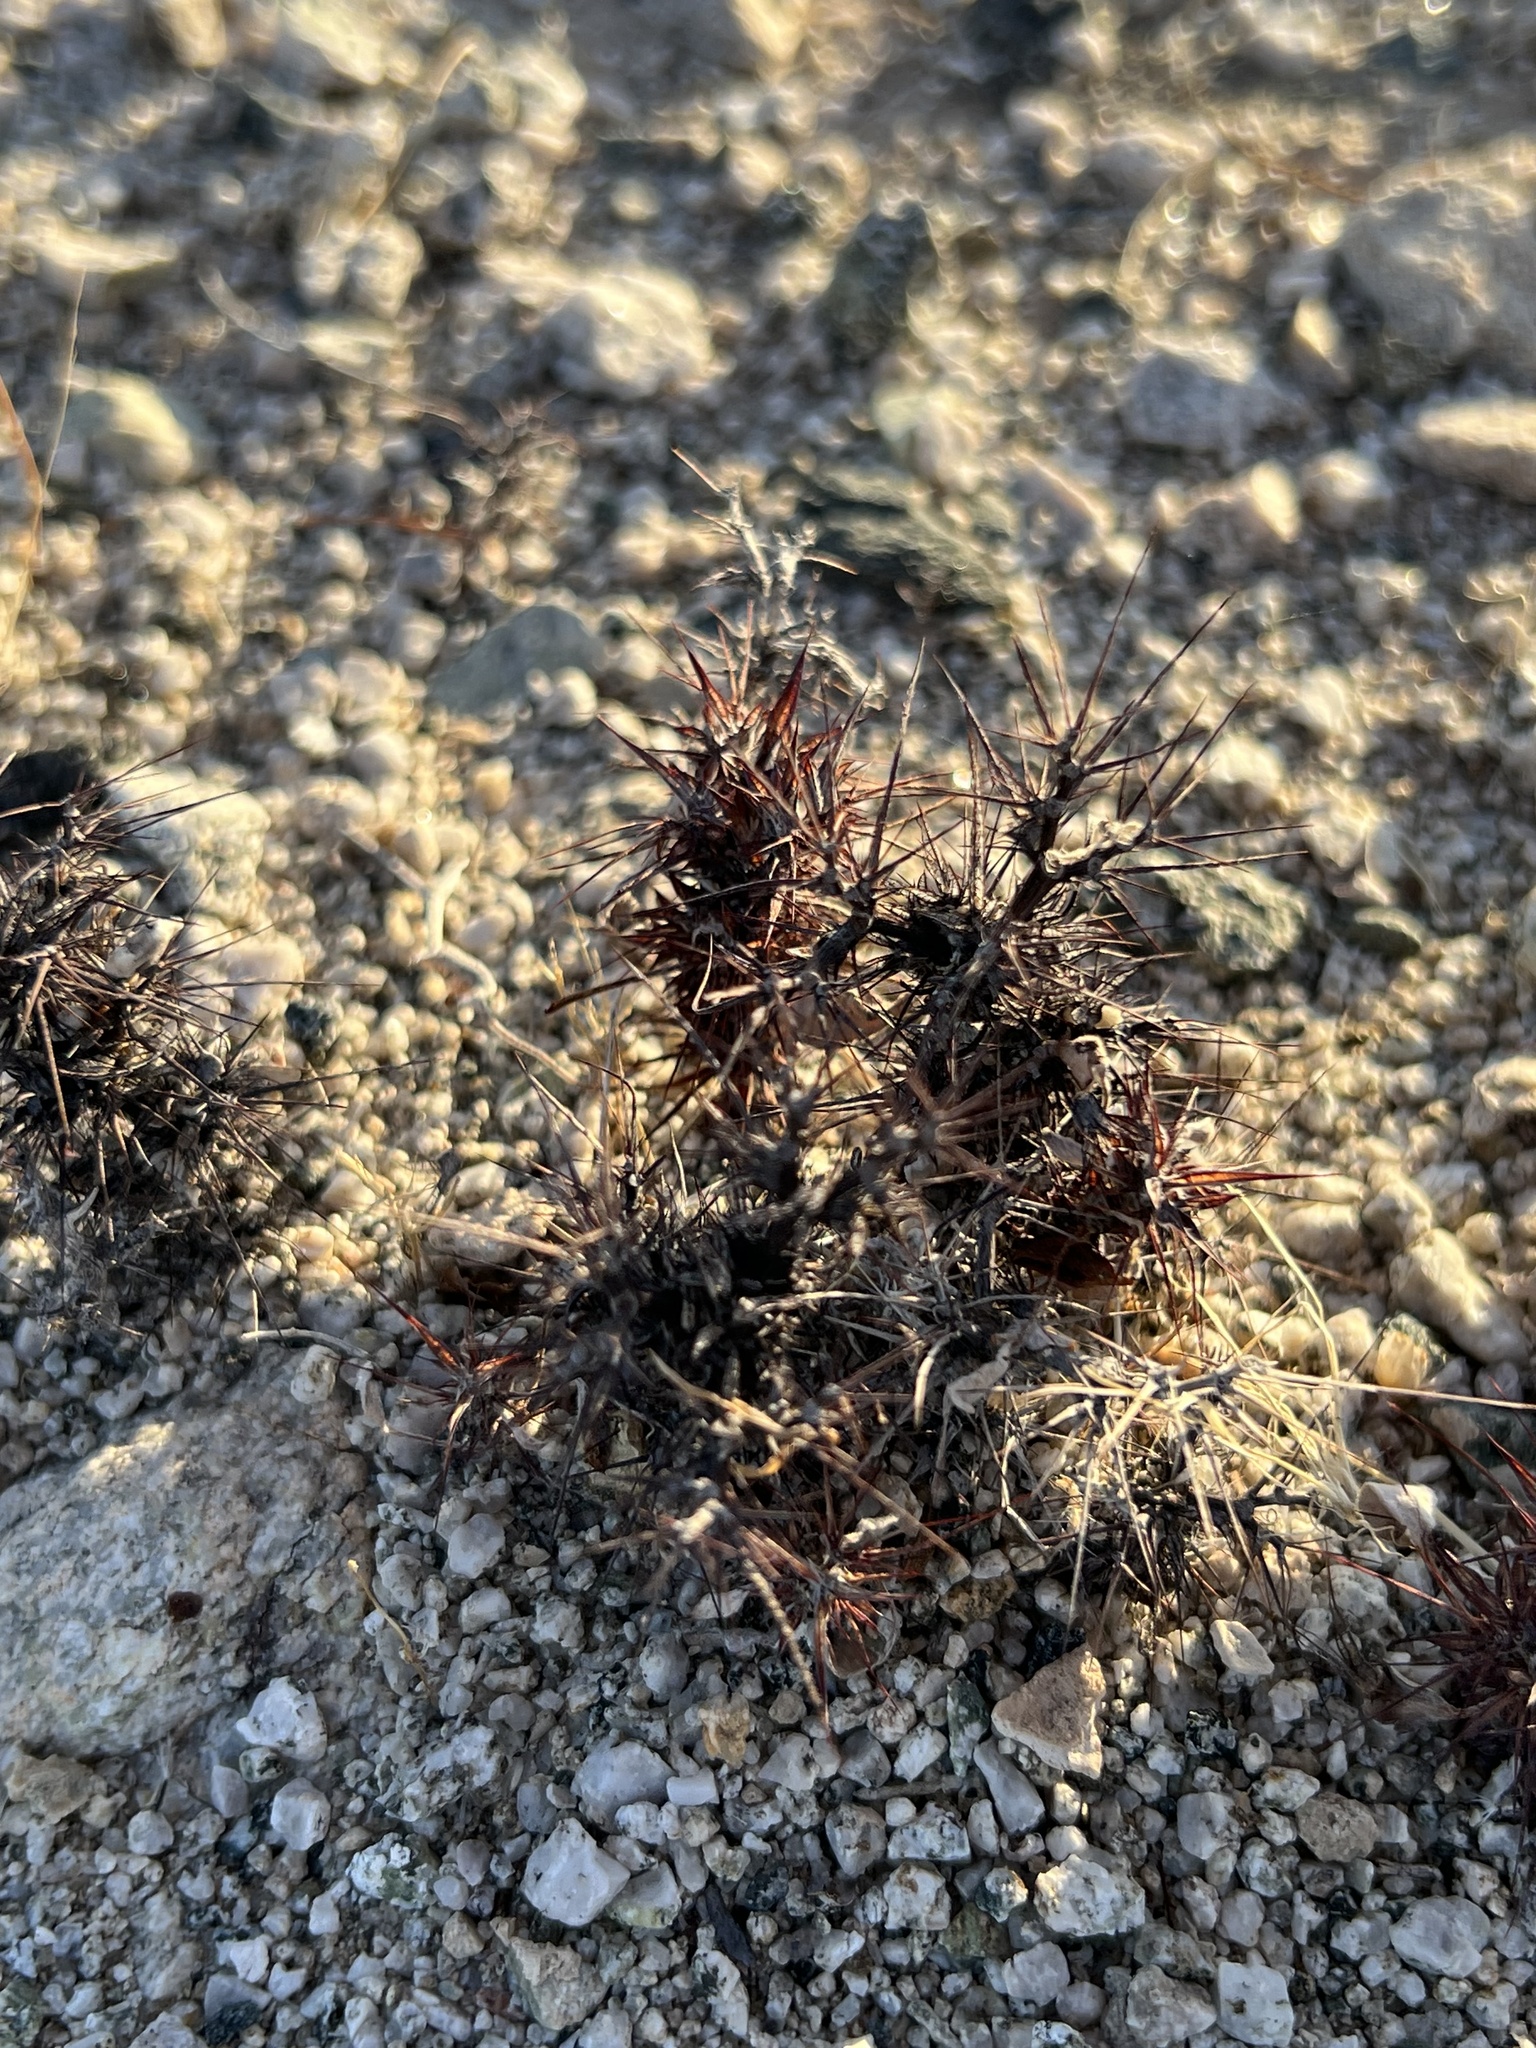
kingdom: Plantae
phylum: Tracheophyta
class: Magnoliopsida
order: Caryophyllales
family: Polygonaceae
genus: Chorizanthe
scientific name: Chorizanthe rigida
